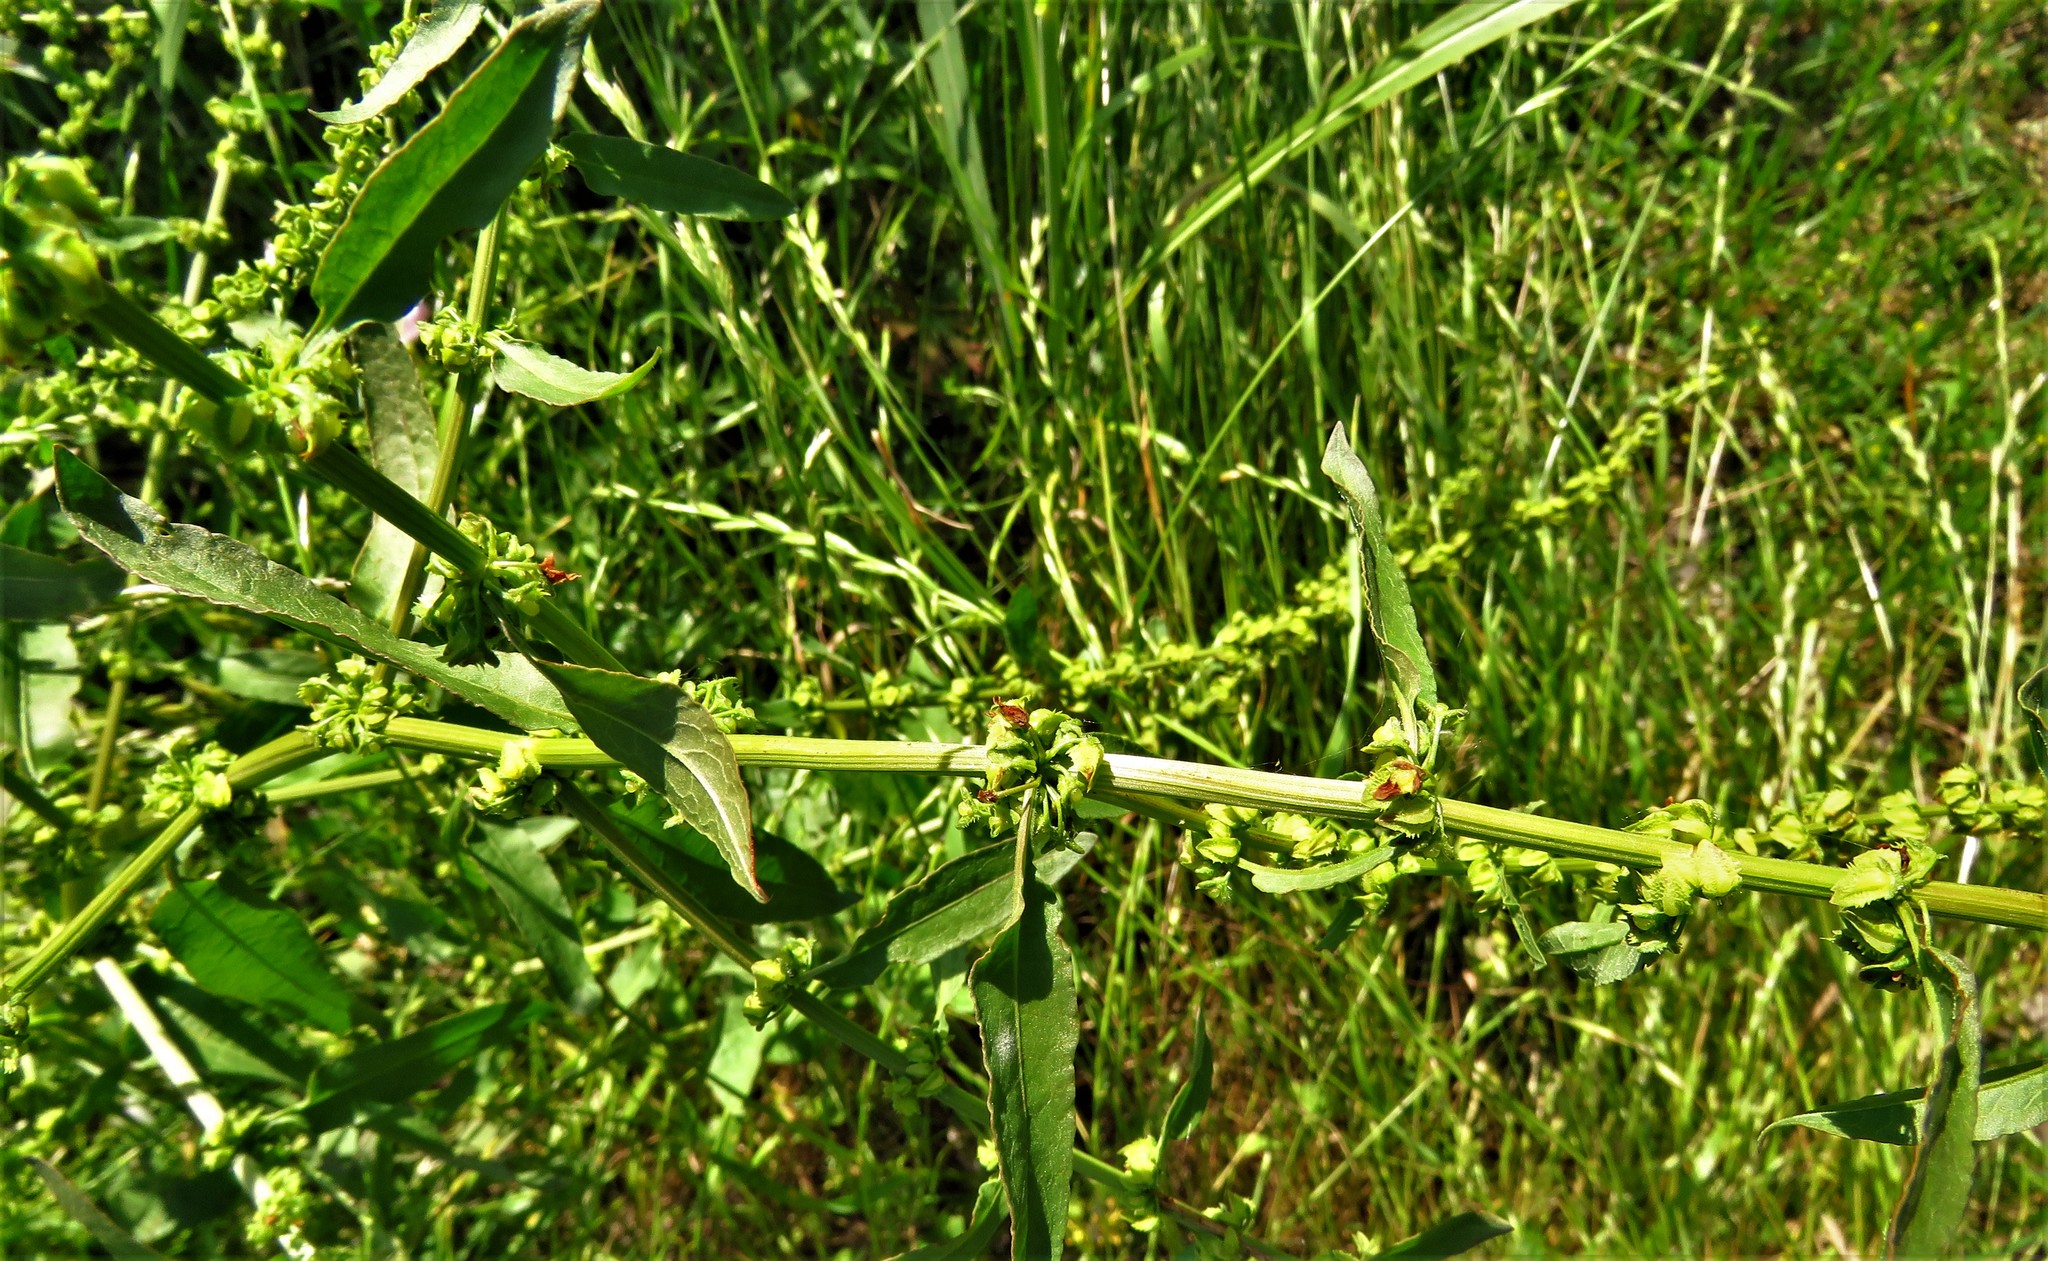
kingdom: Plantae
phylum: Tracheophyta
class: Magnoliopsida
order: Caryophyllales
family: Polygonaceae
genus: Rumex
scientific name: Rumex pulcher
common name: Fiddle dock
